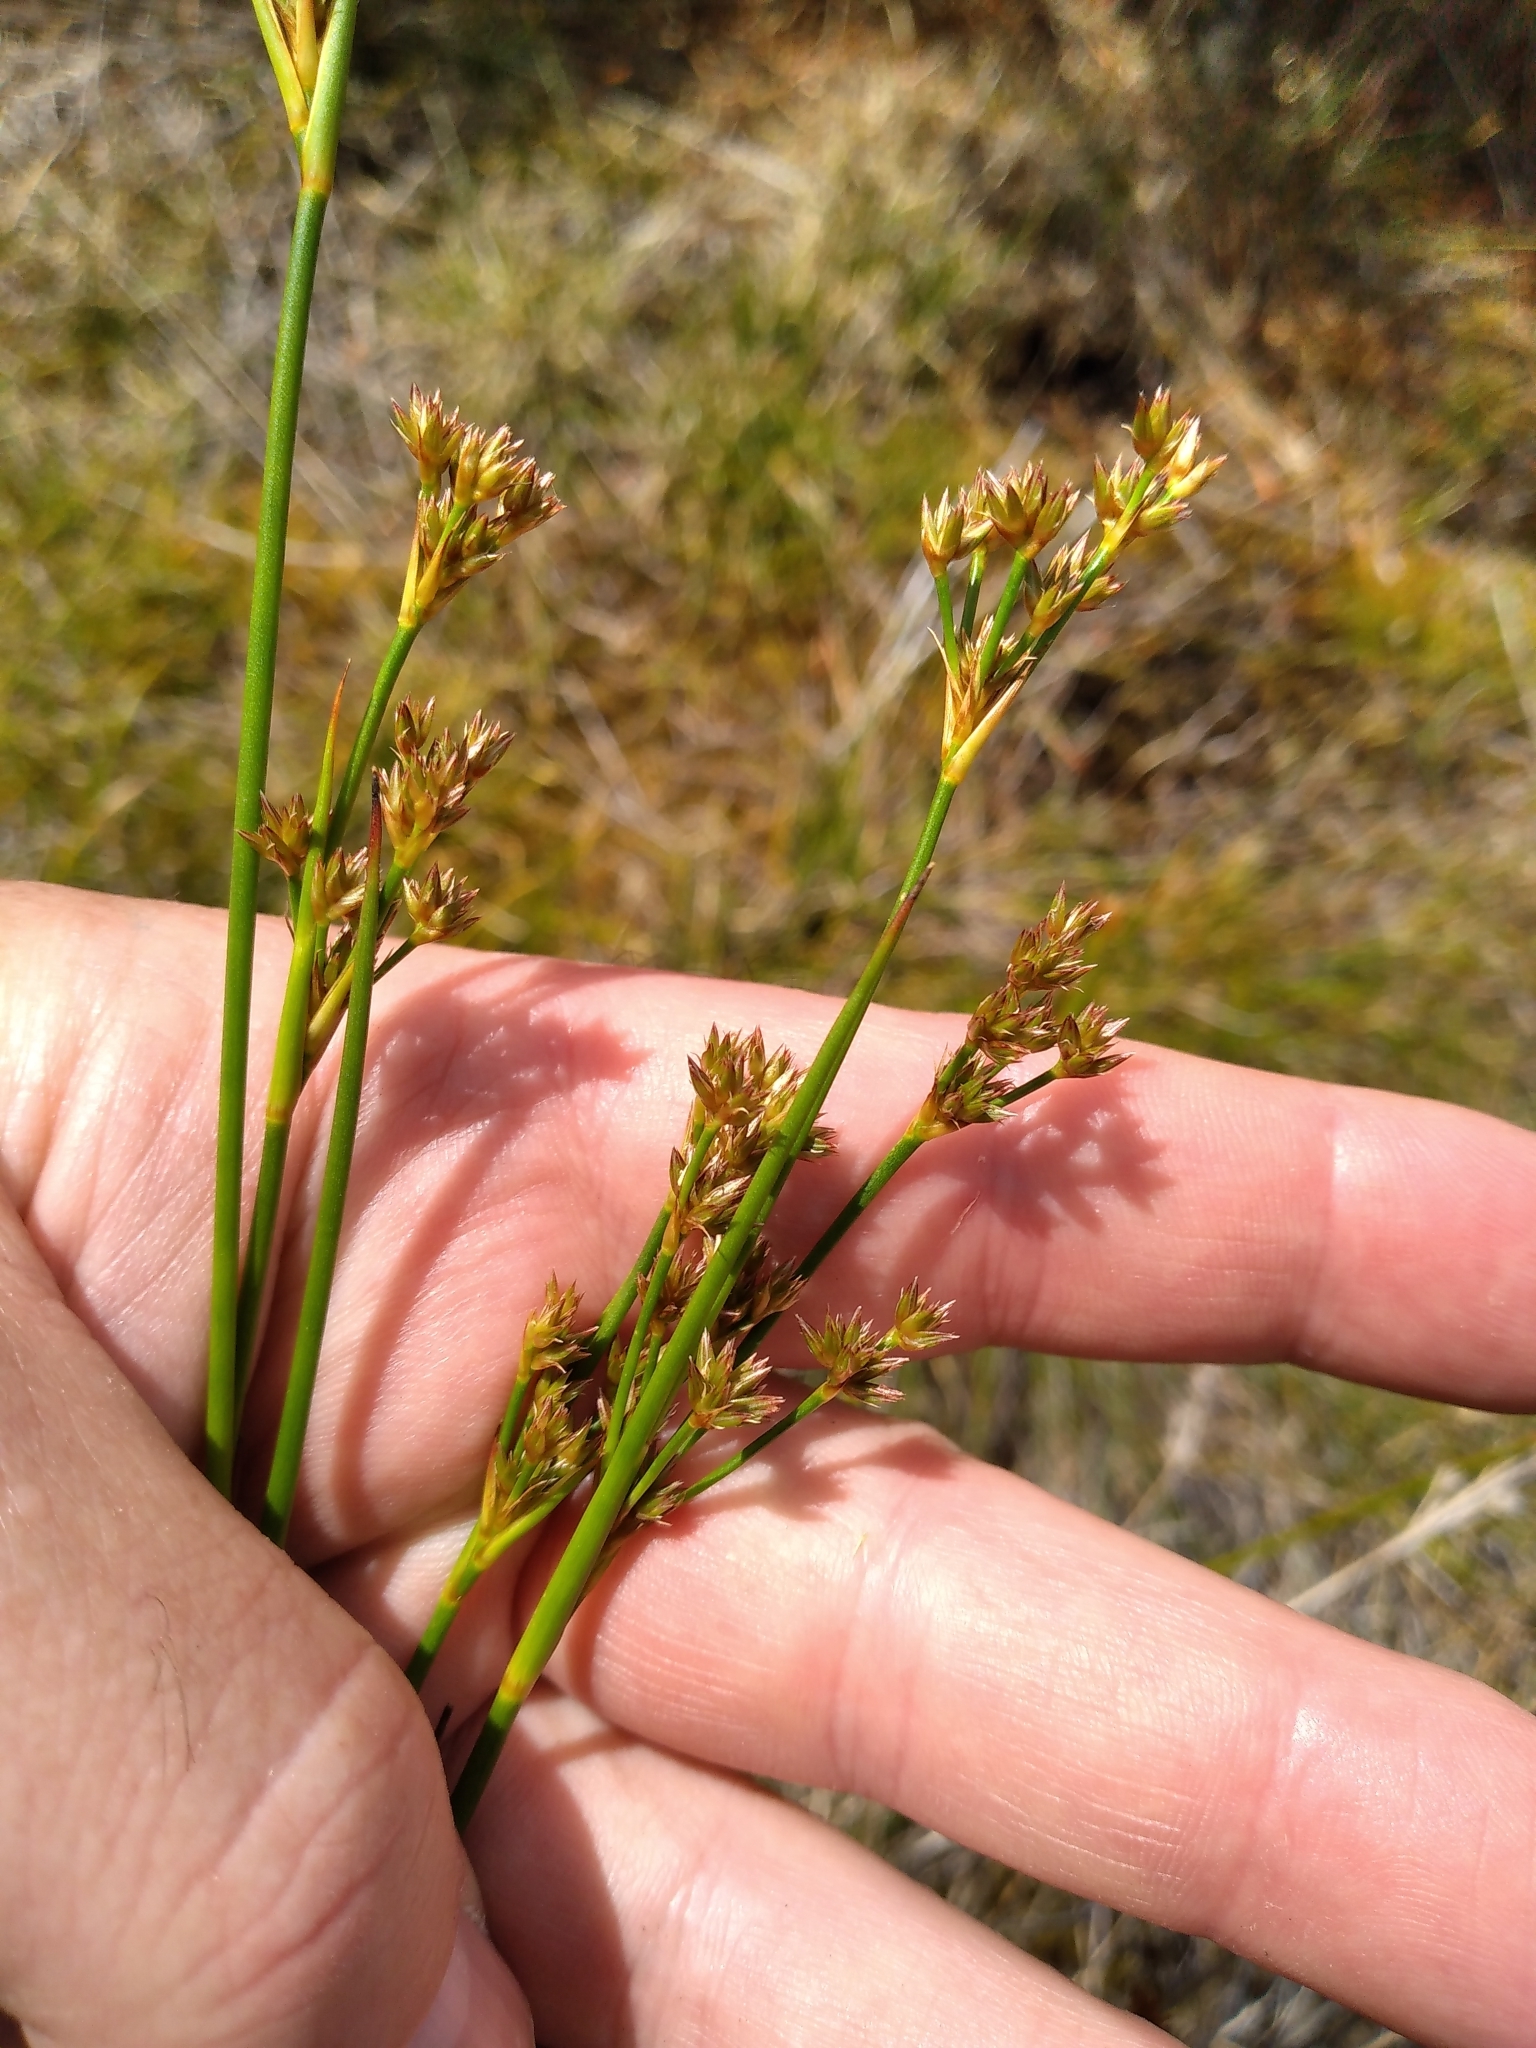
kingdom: Plantae
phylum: Tracheophyta
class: Liliopsida
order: Poales
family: Juncaceae
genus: Juncus
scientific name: Juncus canadensis
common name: Canada rush
